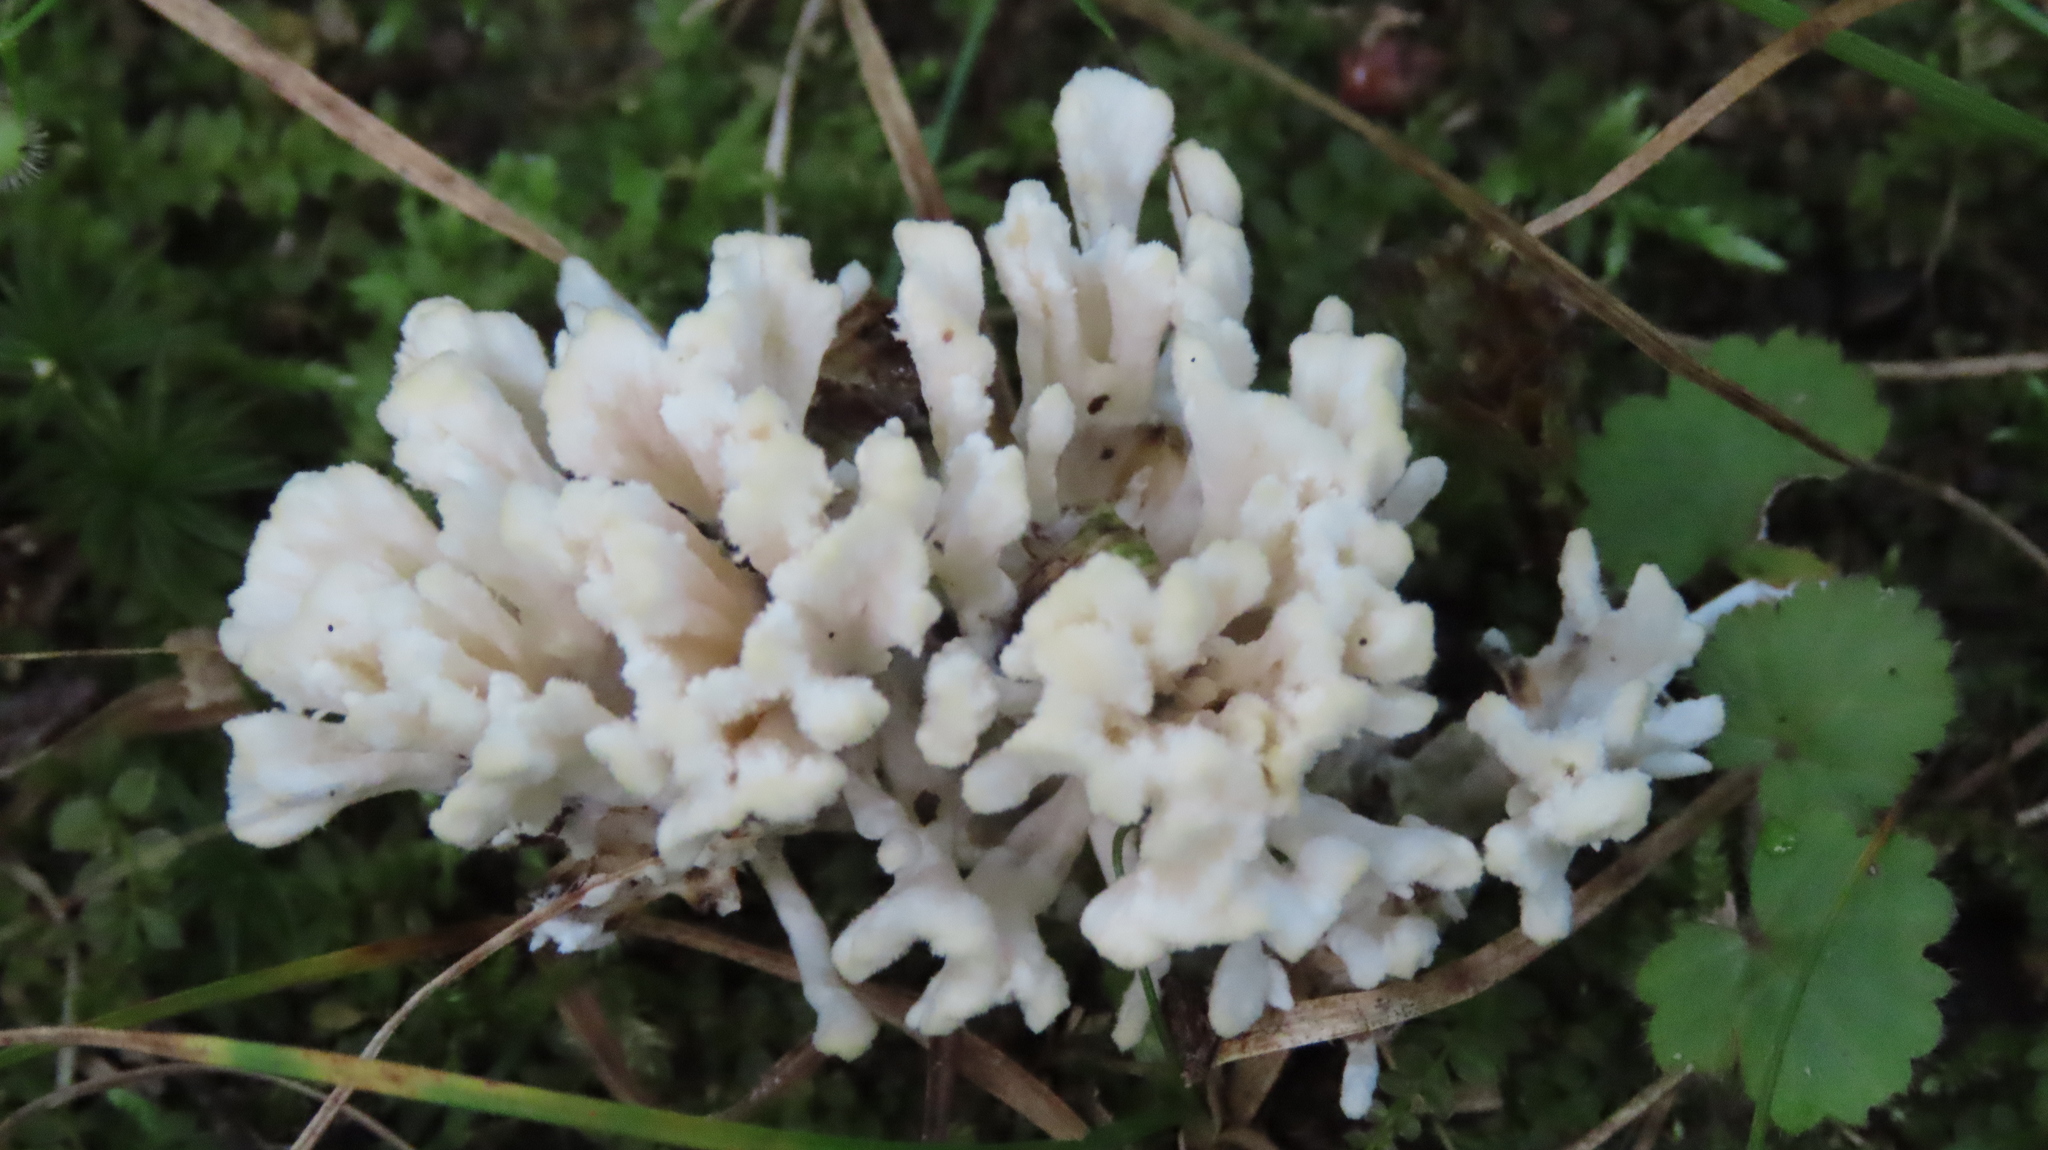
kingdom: Fungi
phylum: Basidiomycota
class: Agaricomycetes
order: Sebacinales
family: Sebacinaceae
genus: Sebacina
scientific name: Sebacina schweinitzii
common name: Jellied false coral fungus
